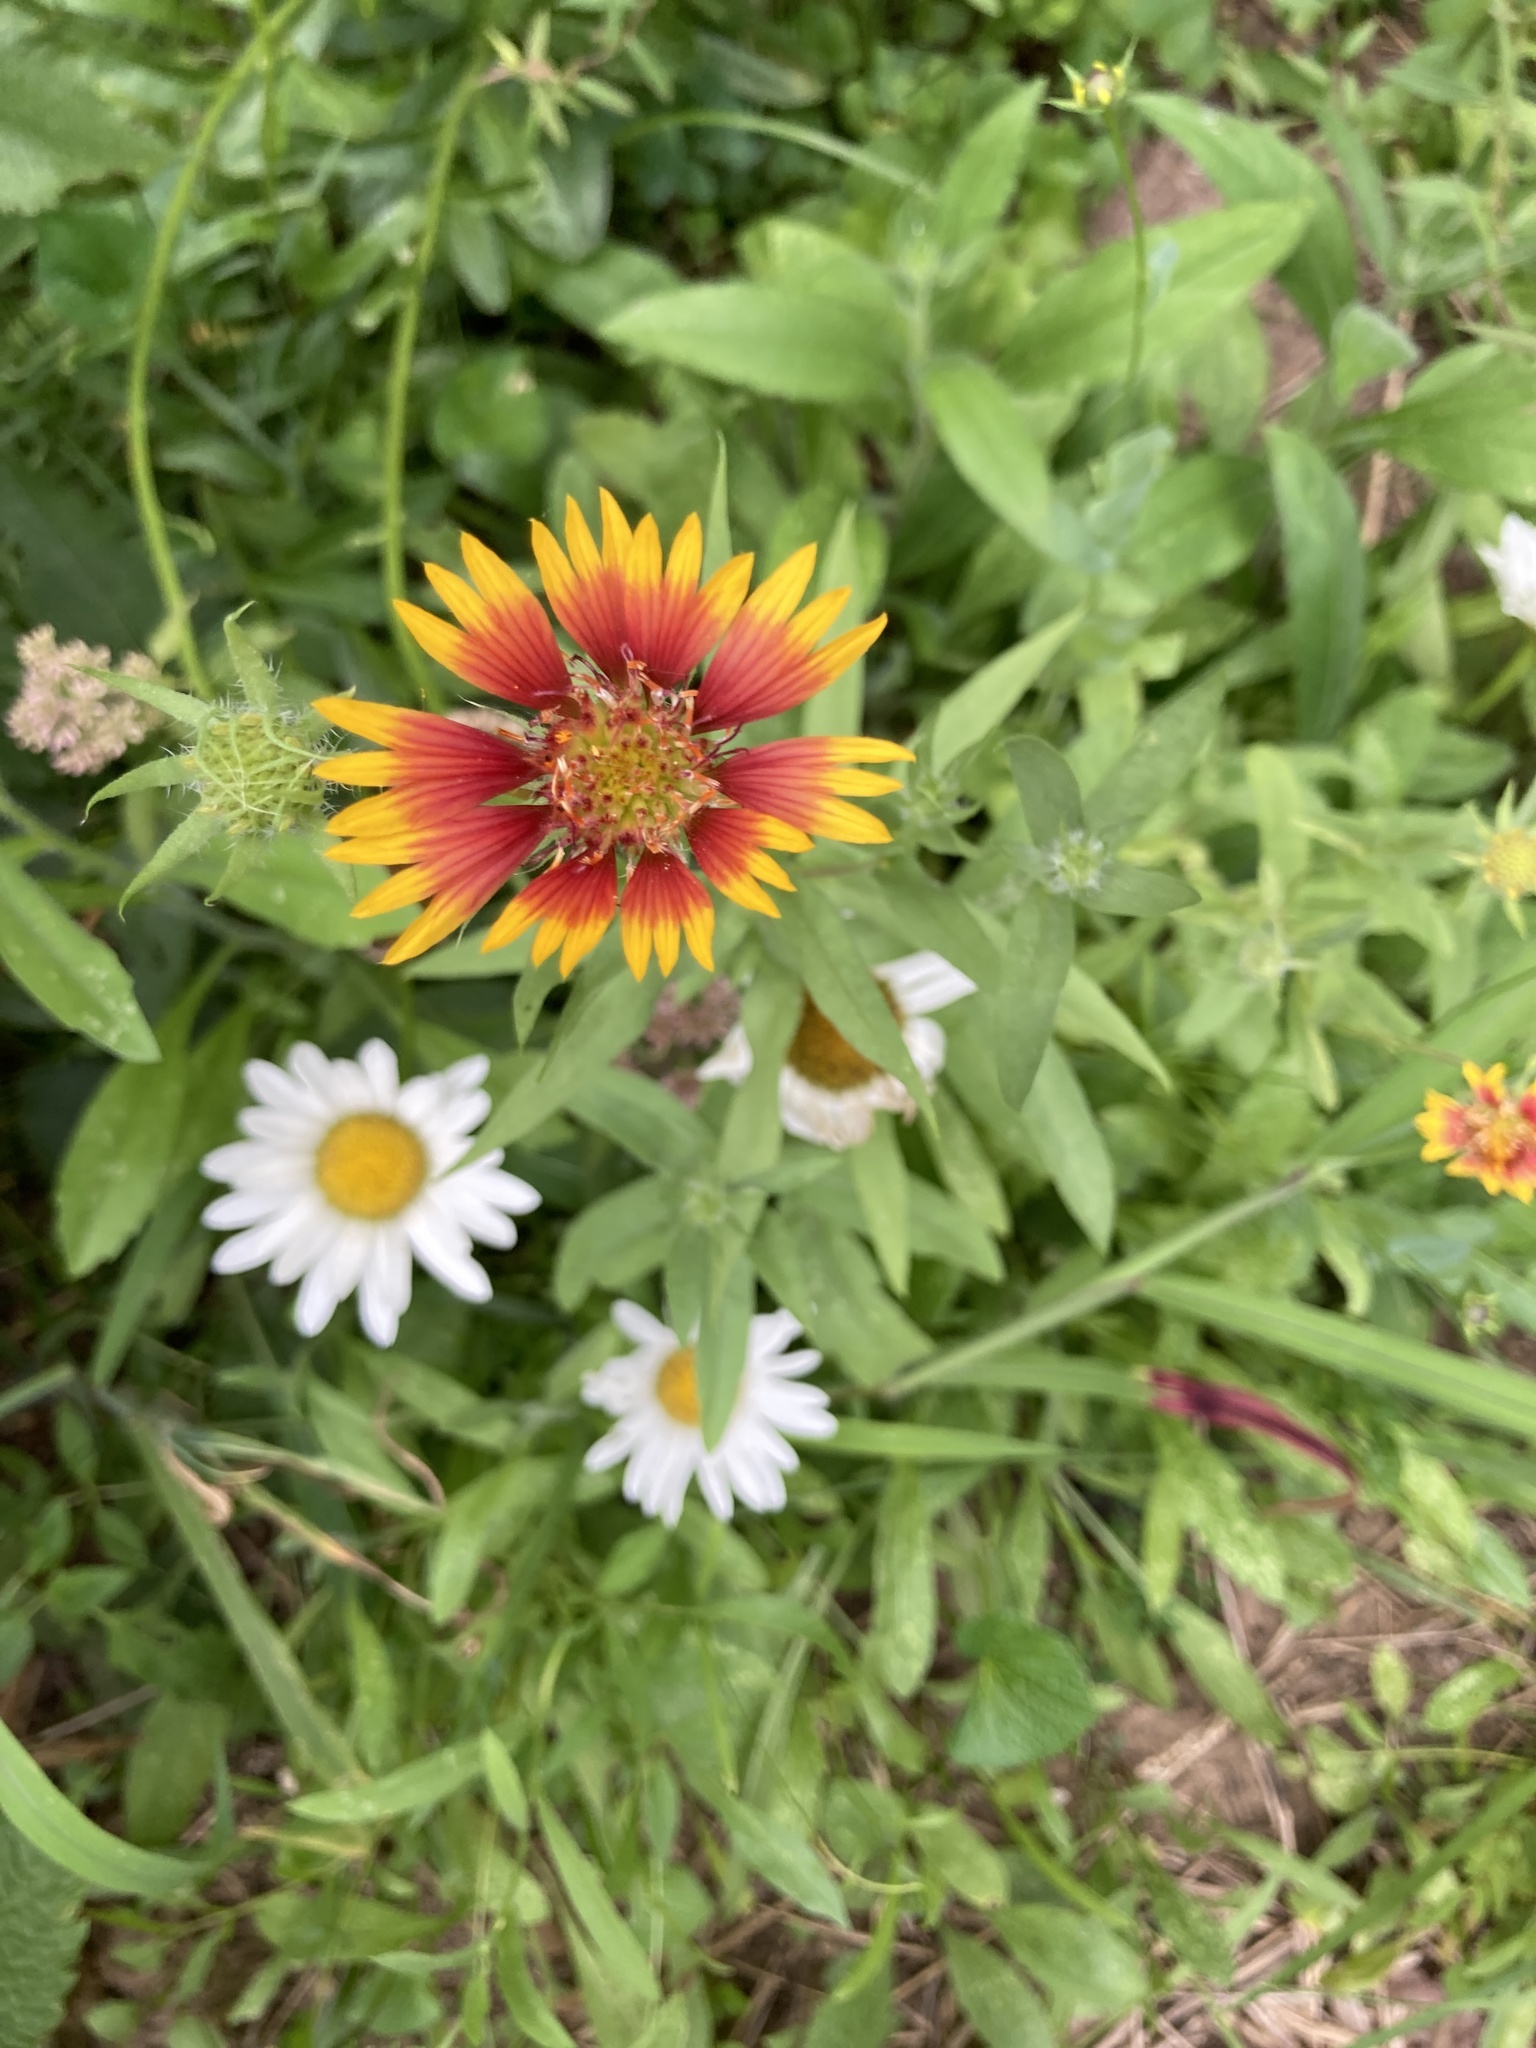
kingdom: Plantae
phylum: Tracheophyta
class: Magnoliopsida
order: Asterales
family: Asteraceae
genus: Gaillardia
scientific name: Gaillardia pulchella
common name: Firewheel
